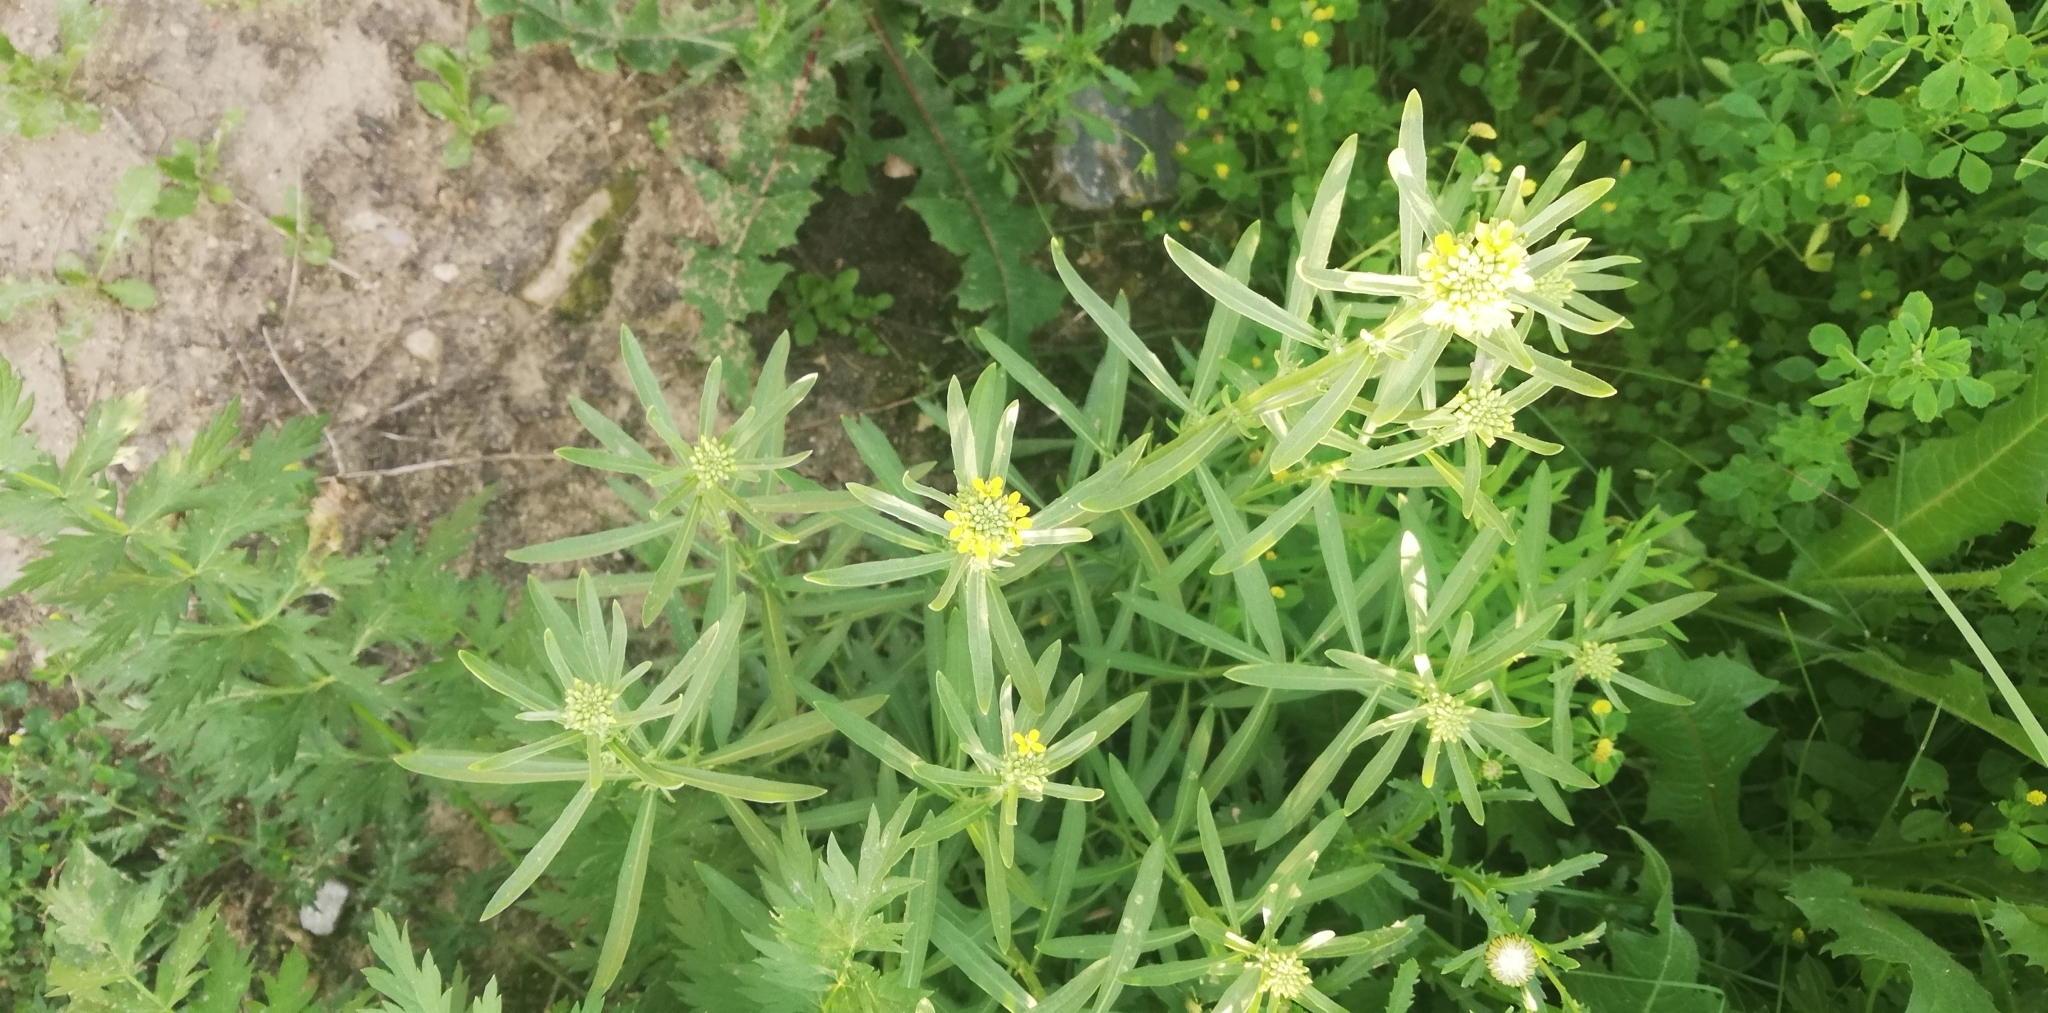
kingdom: Plantae
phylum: Tracheophyta
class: Magnoliopsida
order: Brassicales
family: Brassicaceae
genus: Erysimum
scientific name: Erysimum cheiranthoides
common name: Treacle mustard
